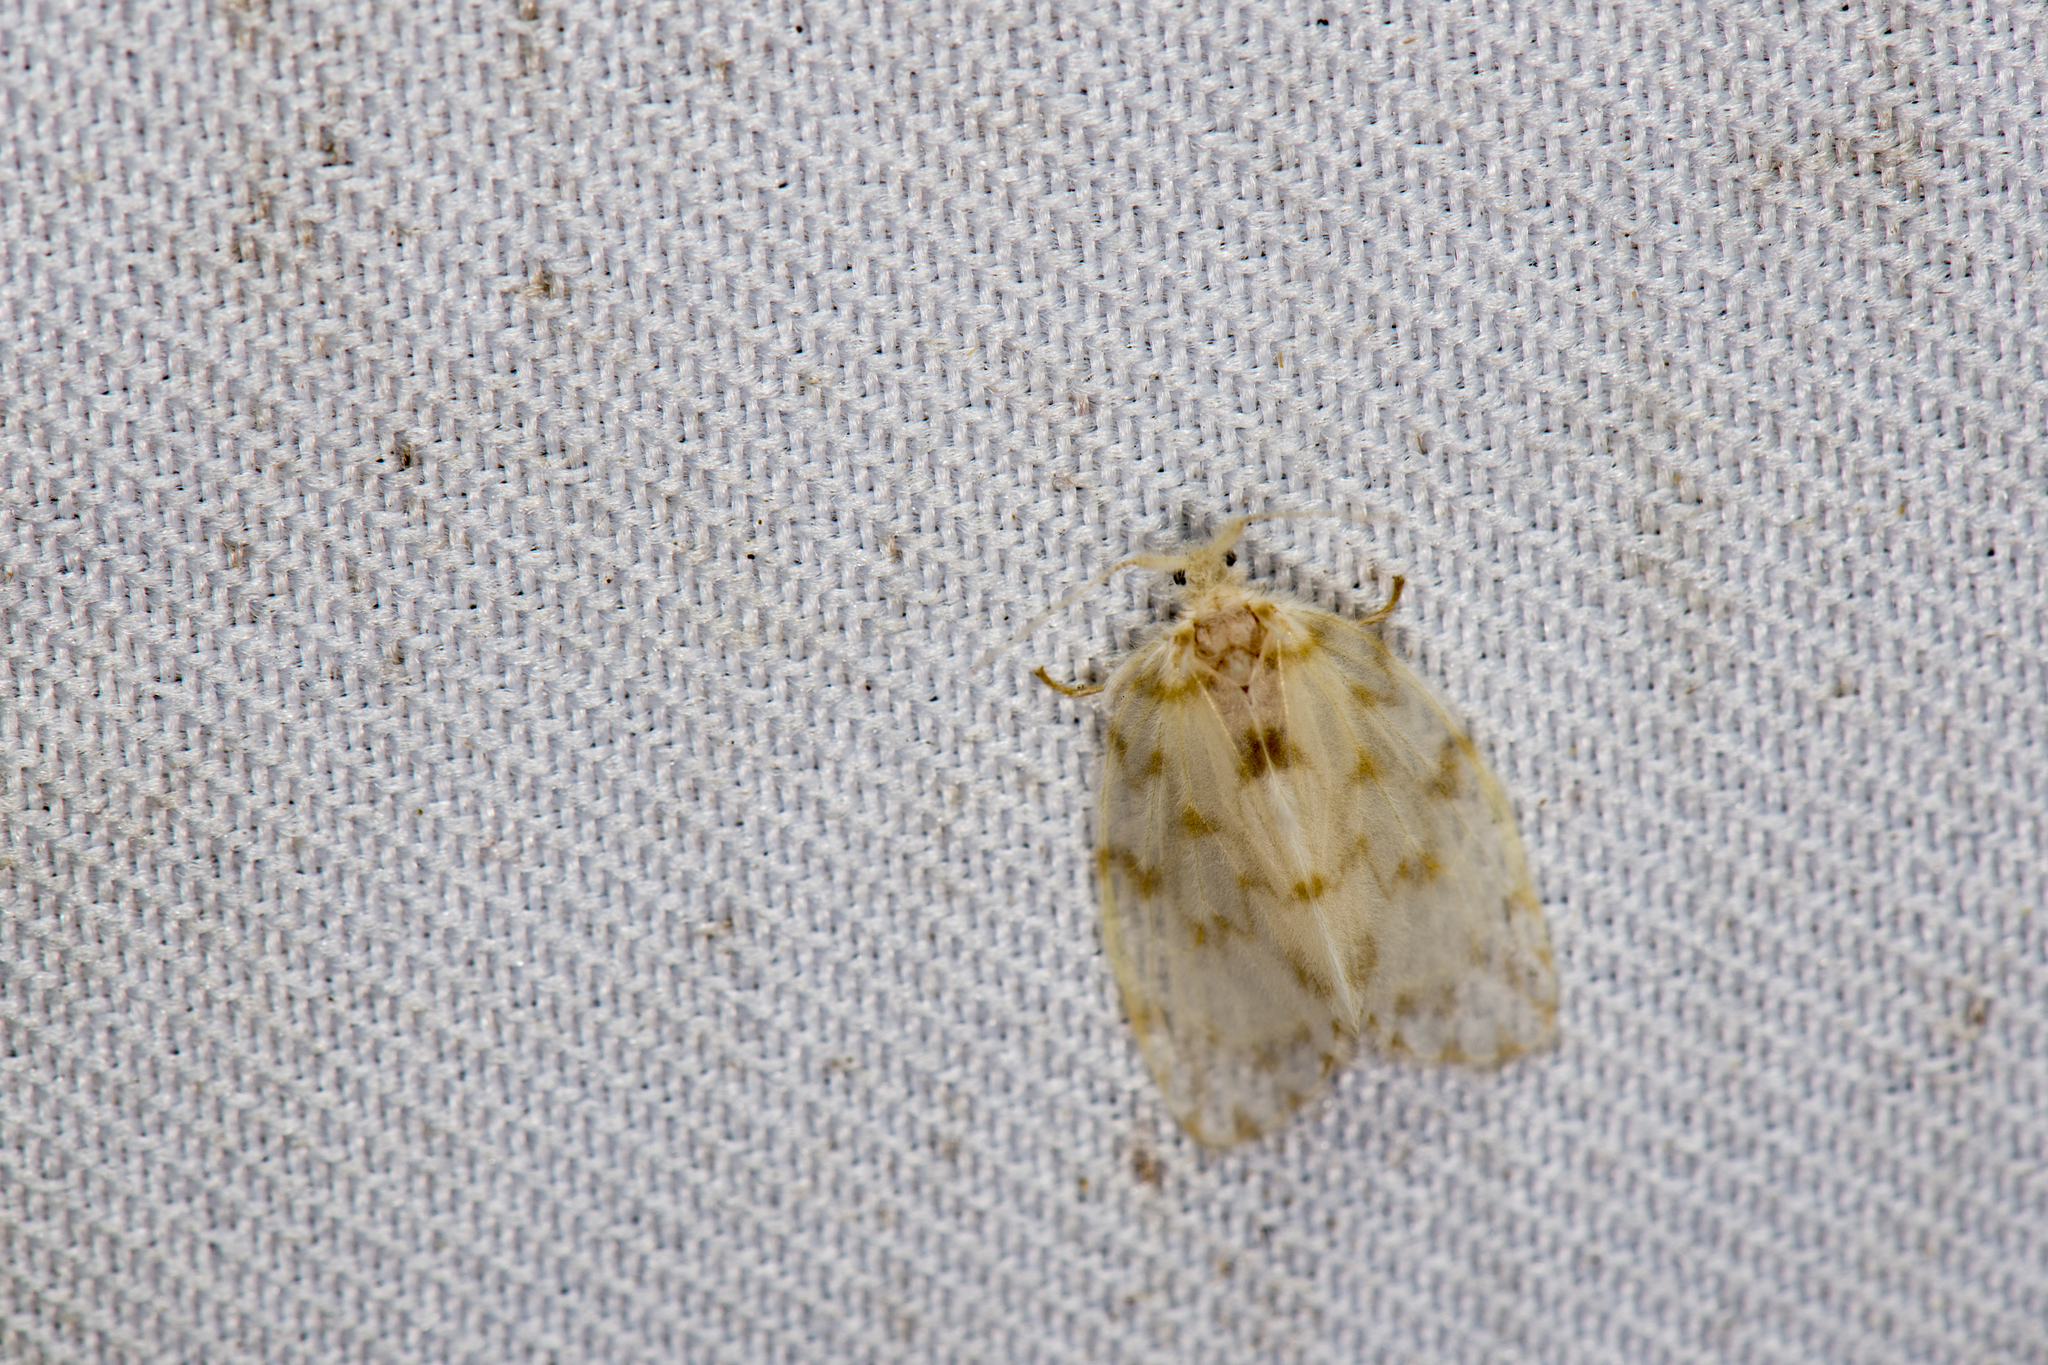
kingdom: Animalia
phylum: Arthropoda
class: Insecta
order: Lepidoptera
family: Erebidae
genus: Chamaita
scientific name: Chamaita hirta
